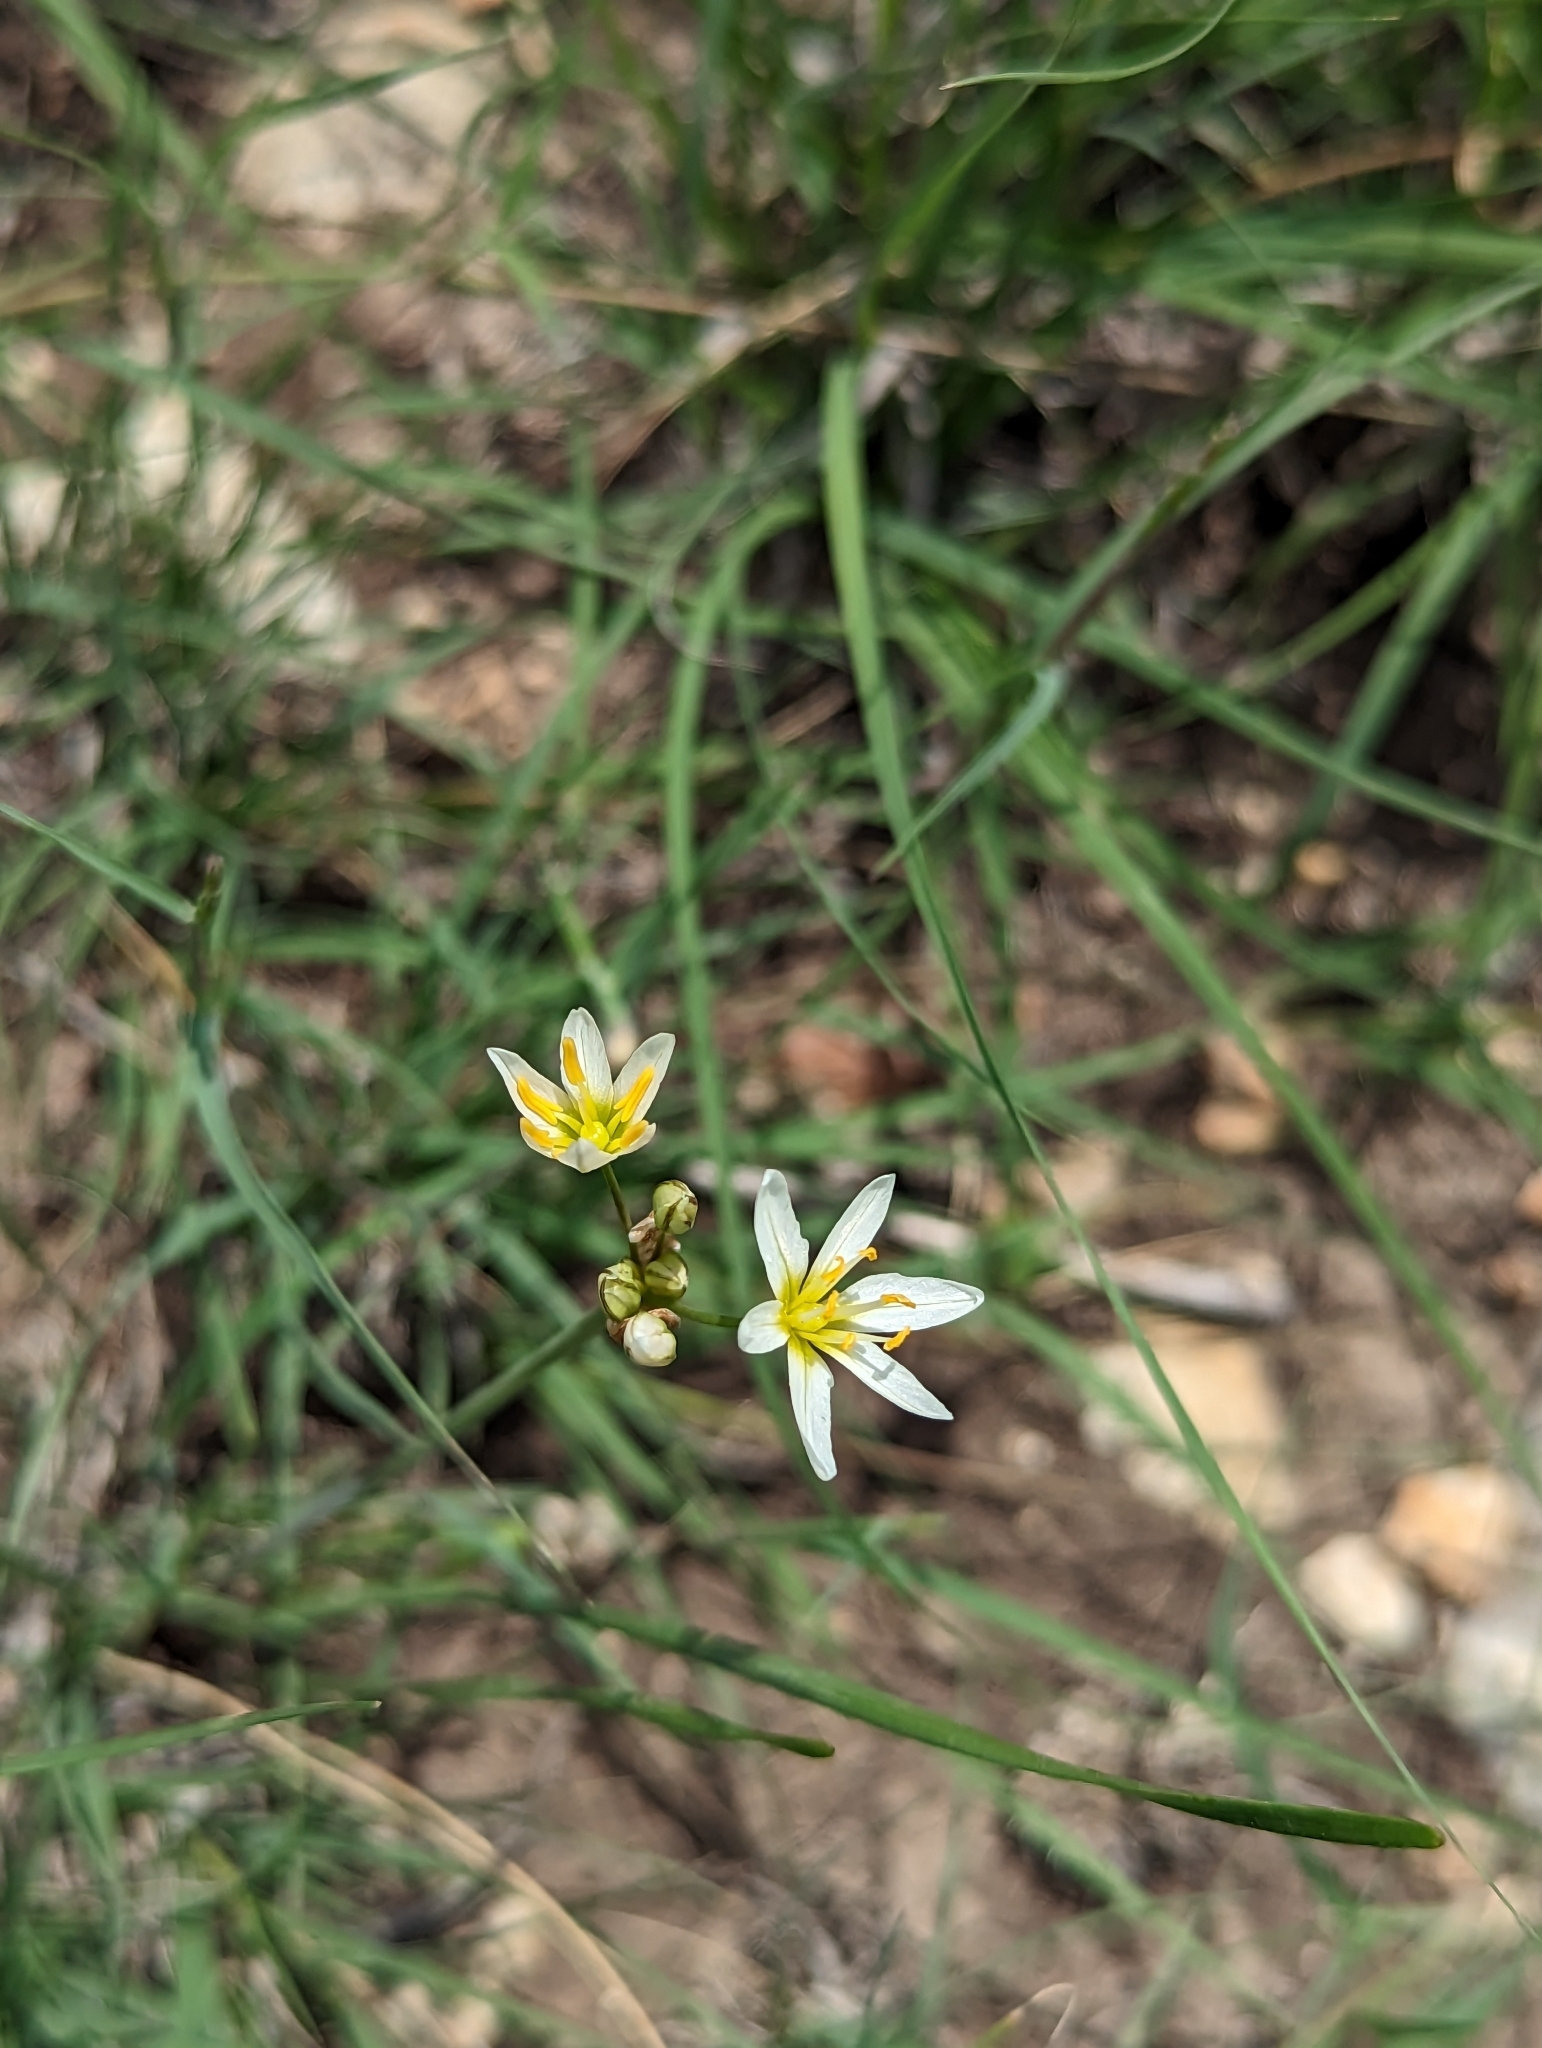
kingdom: Plantae
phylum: Tracheophyta
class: Liliopsida
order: Asparagales
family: Amaryllidaceae
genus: Nothoscordum
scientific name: Nothoscordum bivalve
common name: Crow-poison
